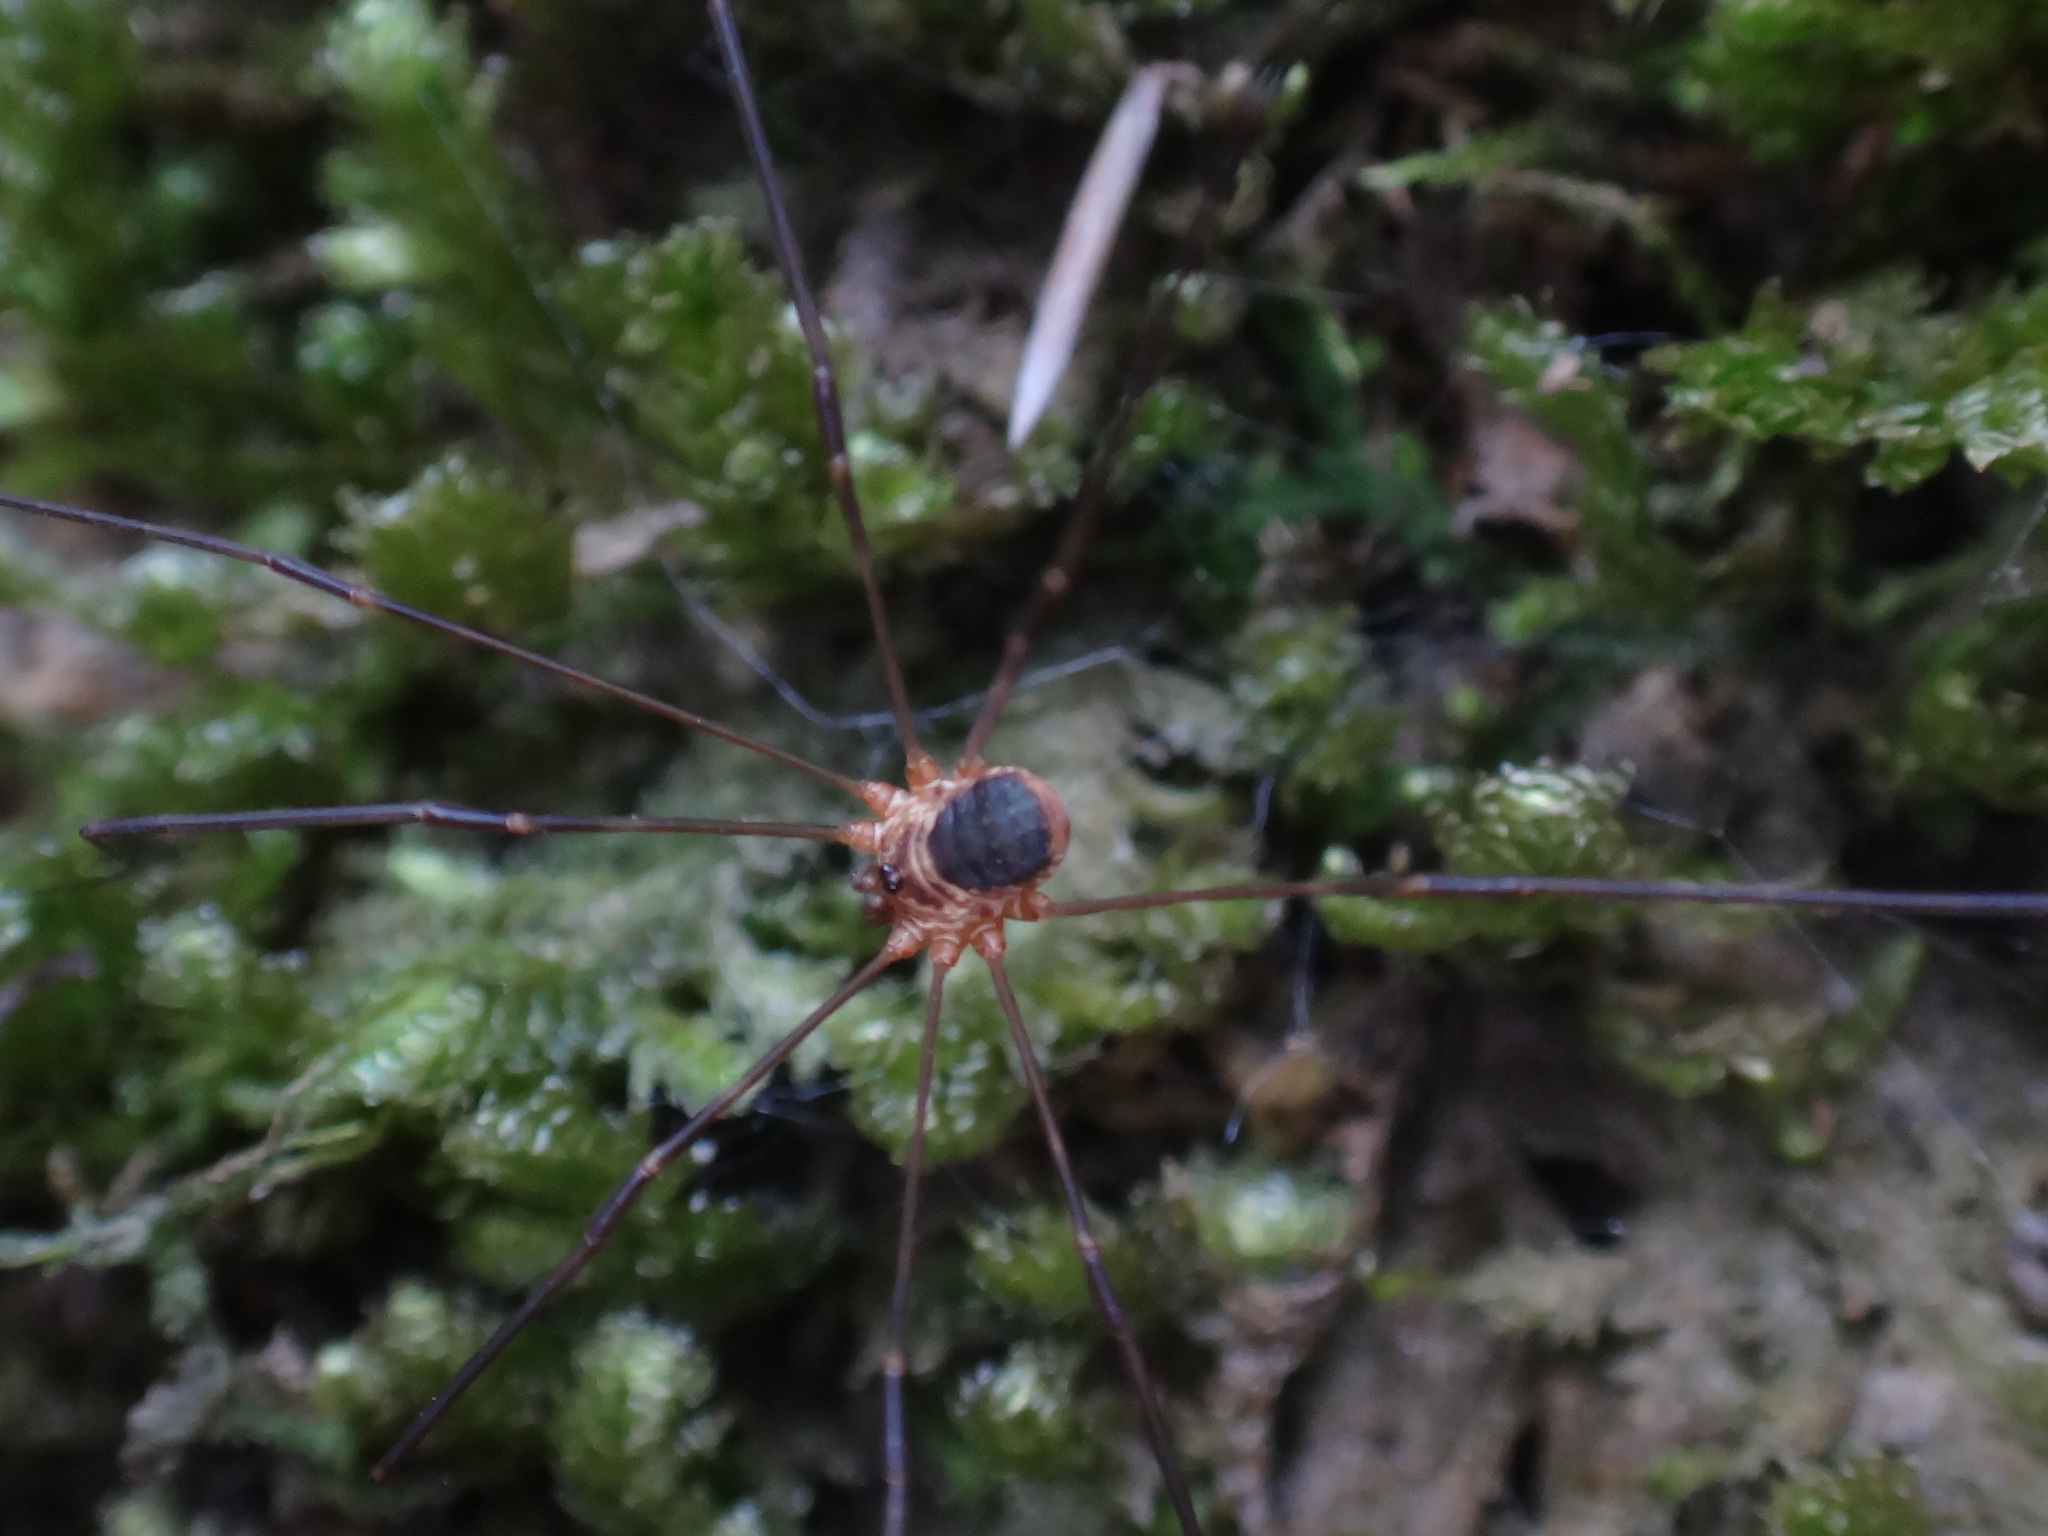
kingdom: Animalia
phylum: Arthropoda
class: Arachnida
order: Opiliones
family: Phalangiidae
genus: Amilenus
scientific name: Amilenus aurantiacus
